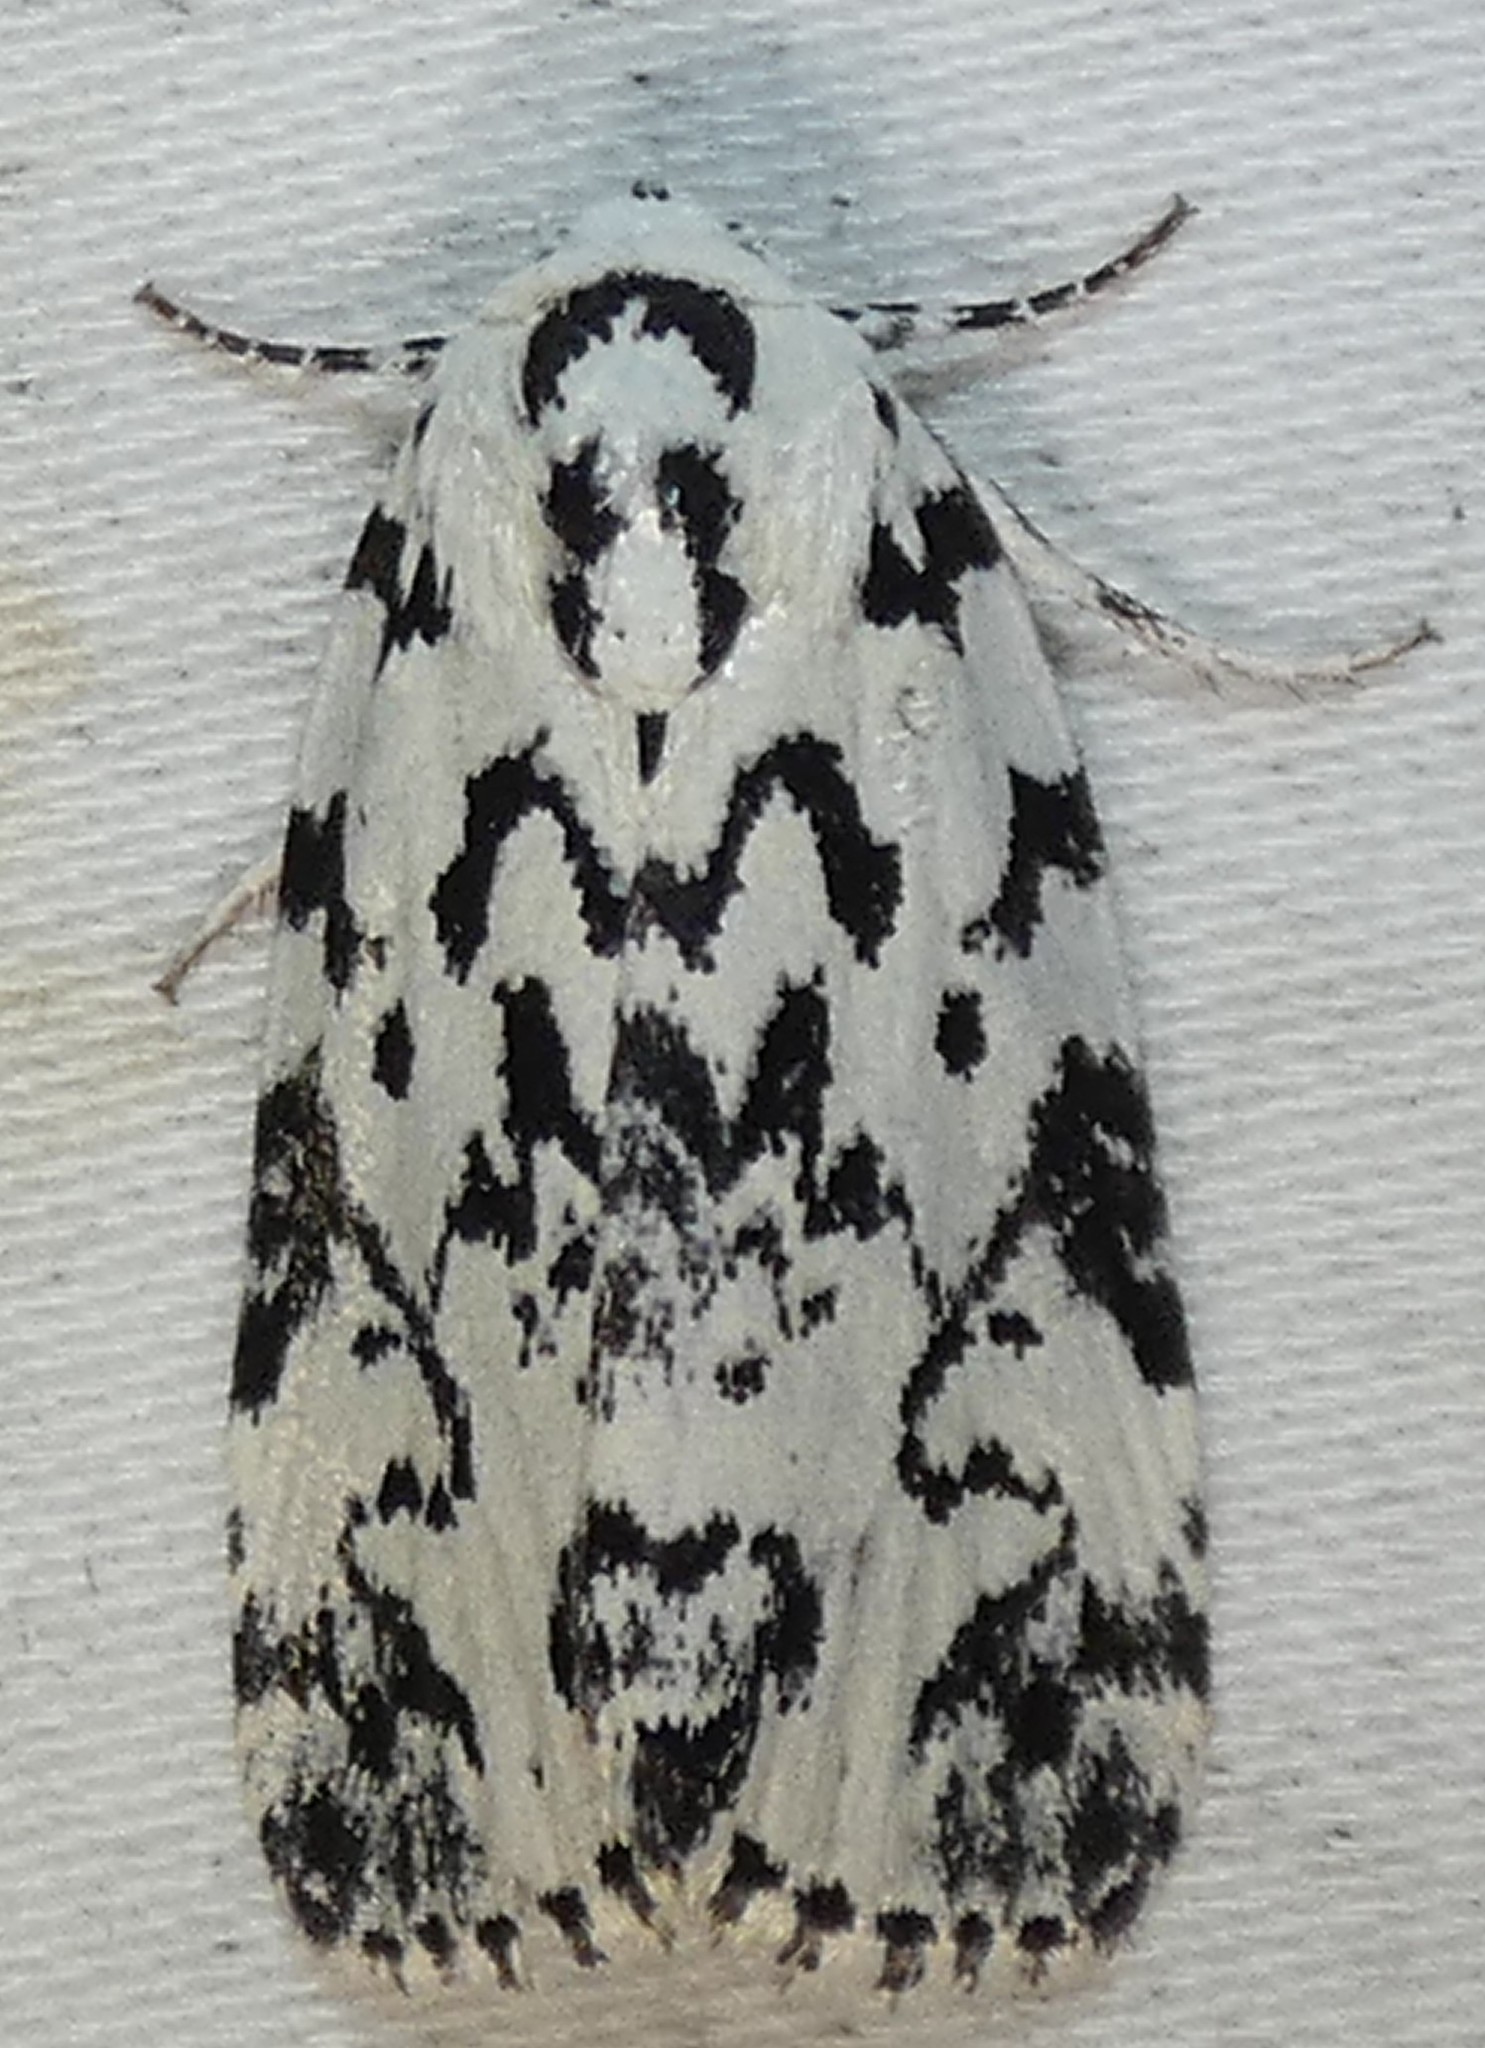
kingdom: Animalia
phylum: Arthropoda
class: Insecta
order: Lepidoptera
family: Noctuidae
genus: Polygrammate
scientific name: Polygrammate hebraeicum
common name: Hebrew moth
